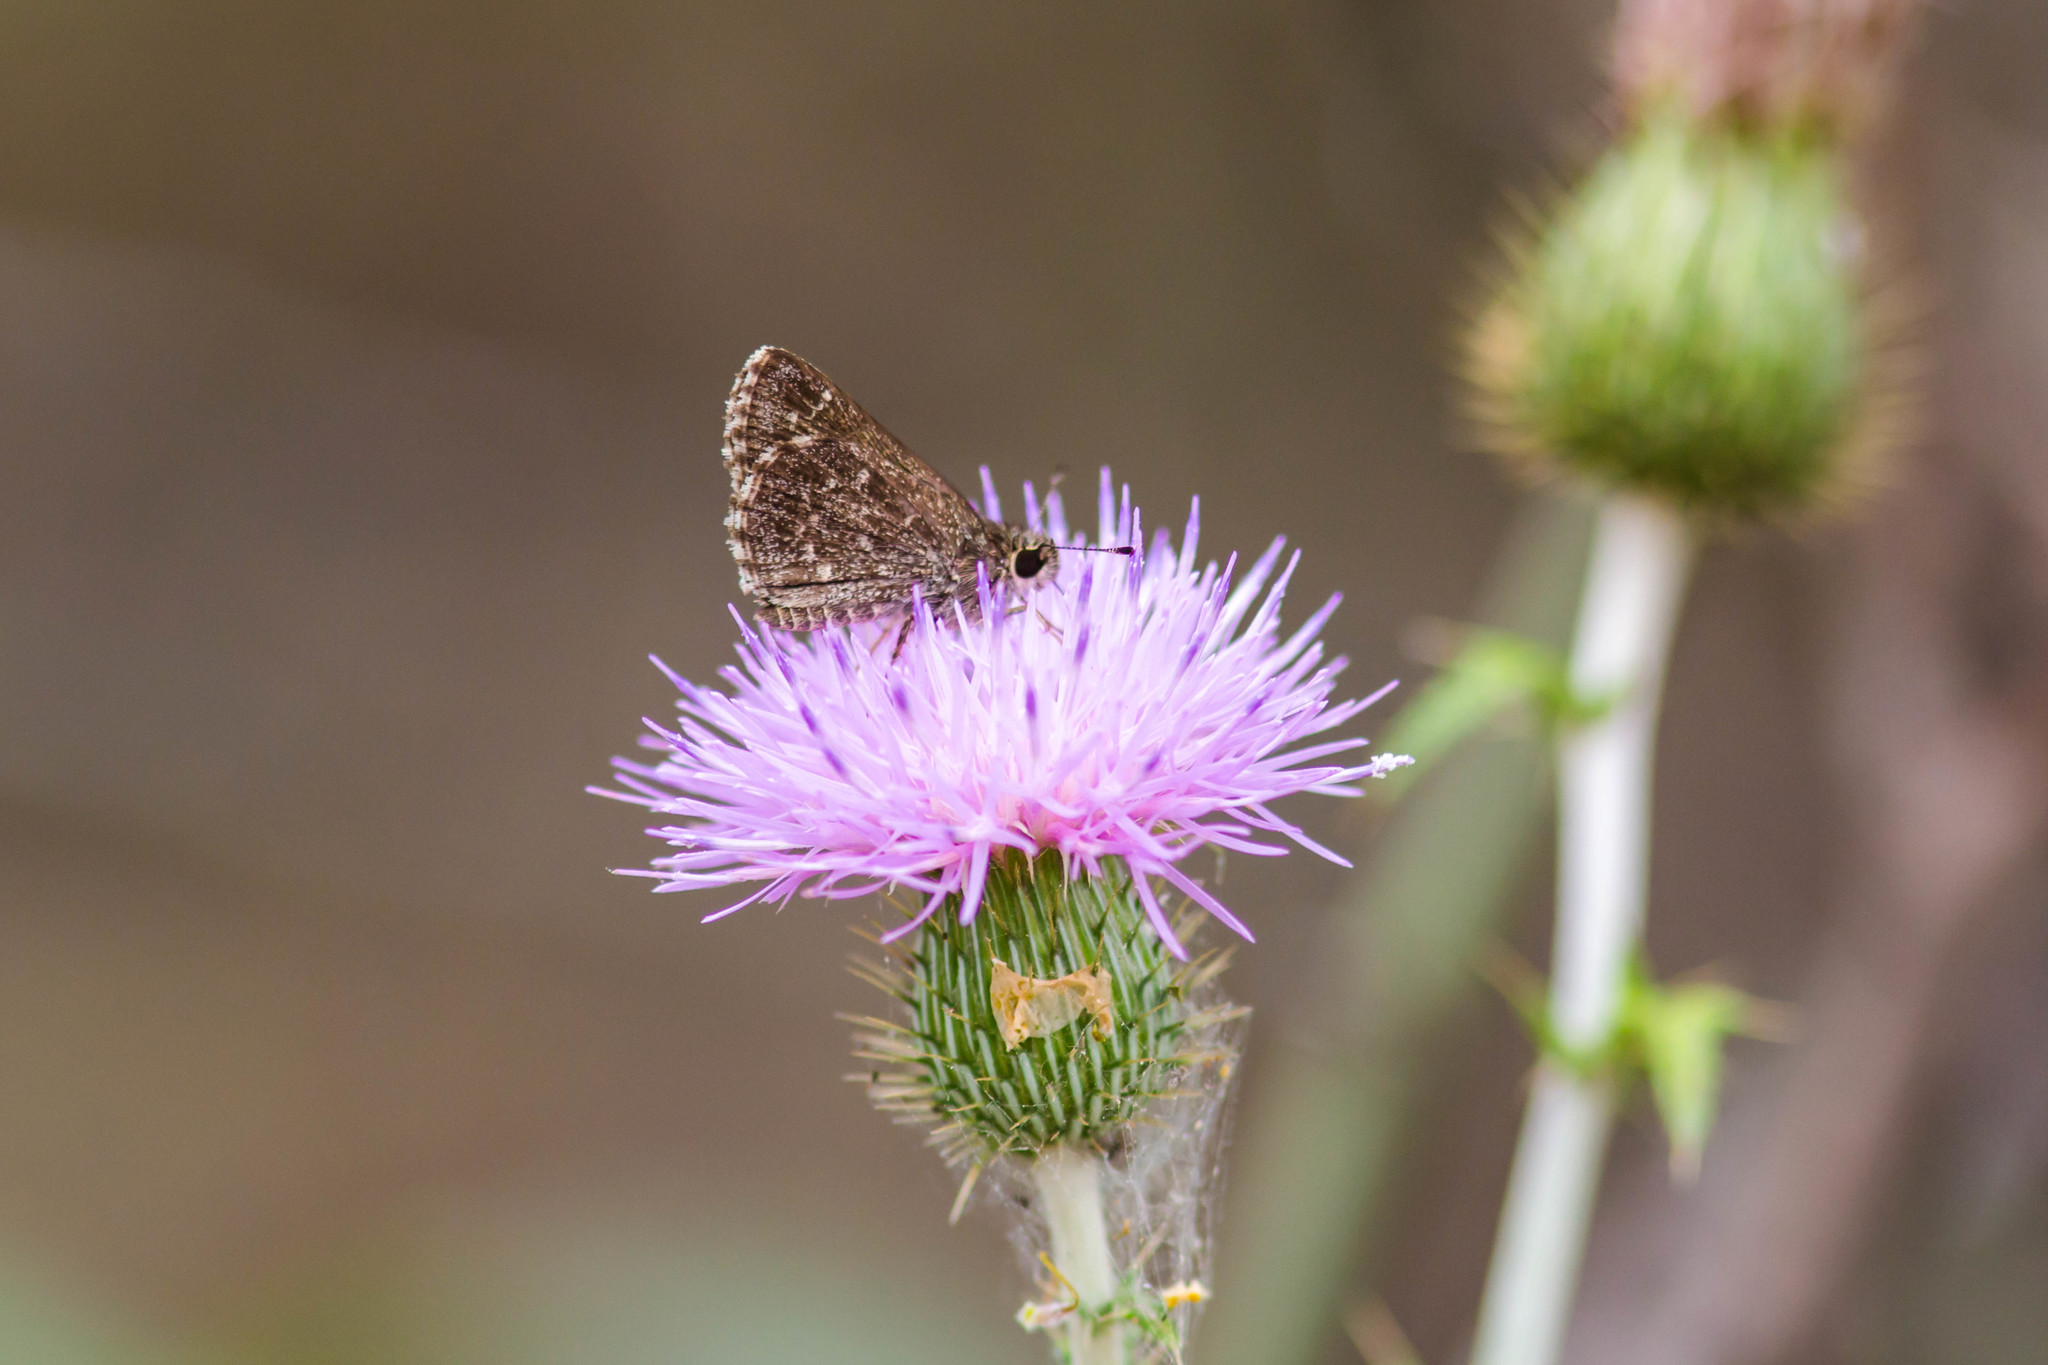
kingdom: Animalia
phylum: Arthropoda
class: Insecta
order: Lepidoptera
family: Hesperiidae
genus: Mastor
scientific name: Mastor celia
